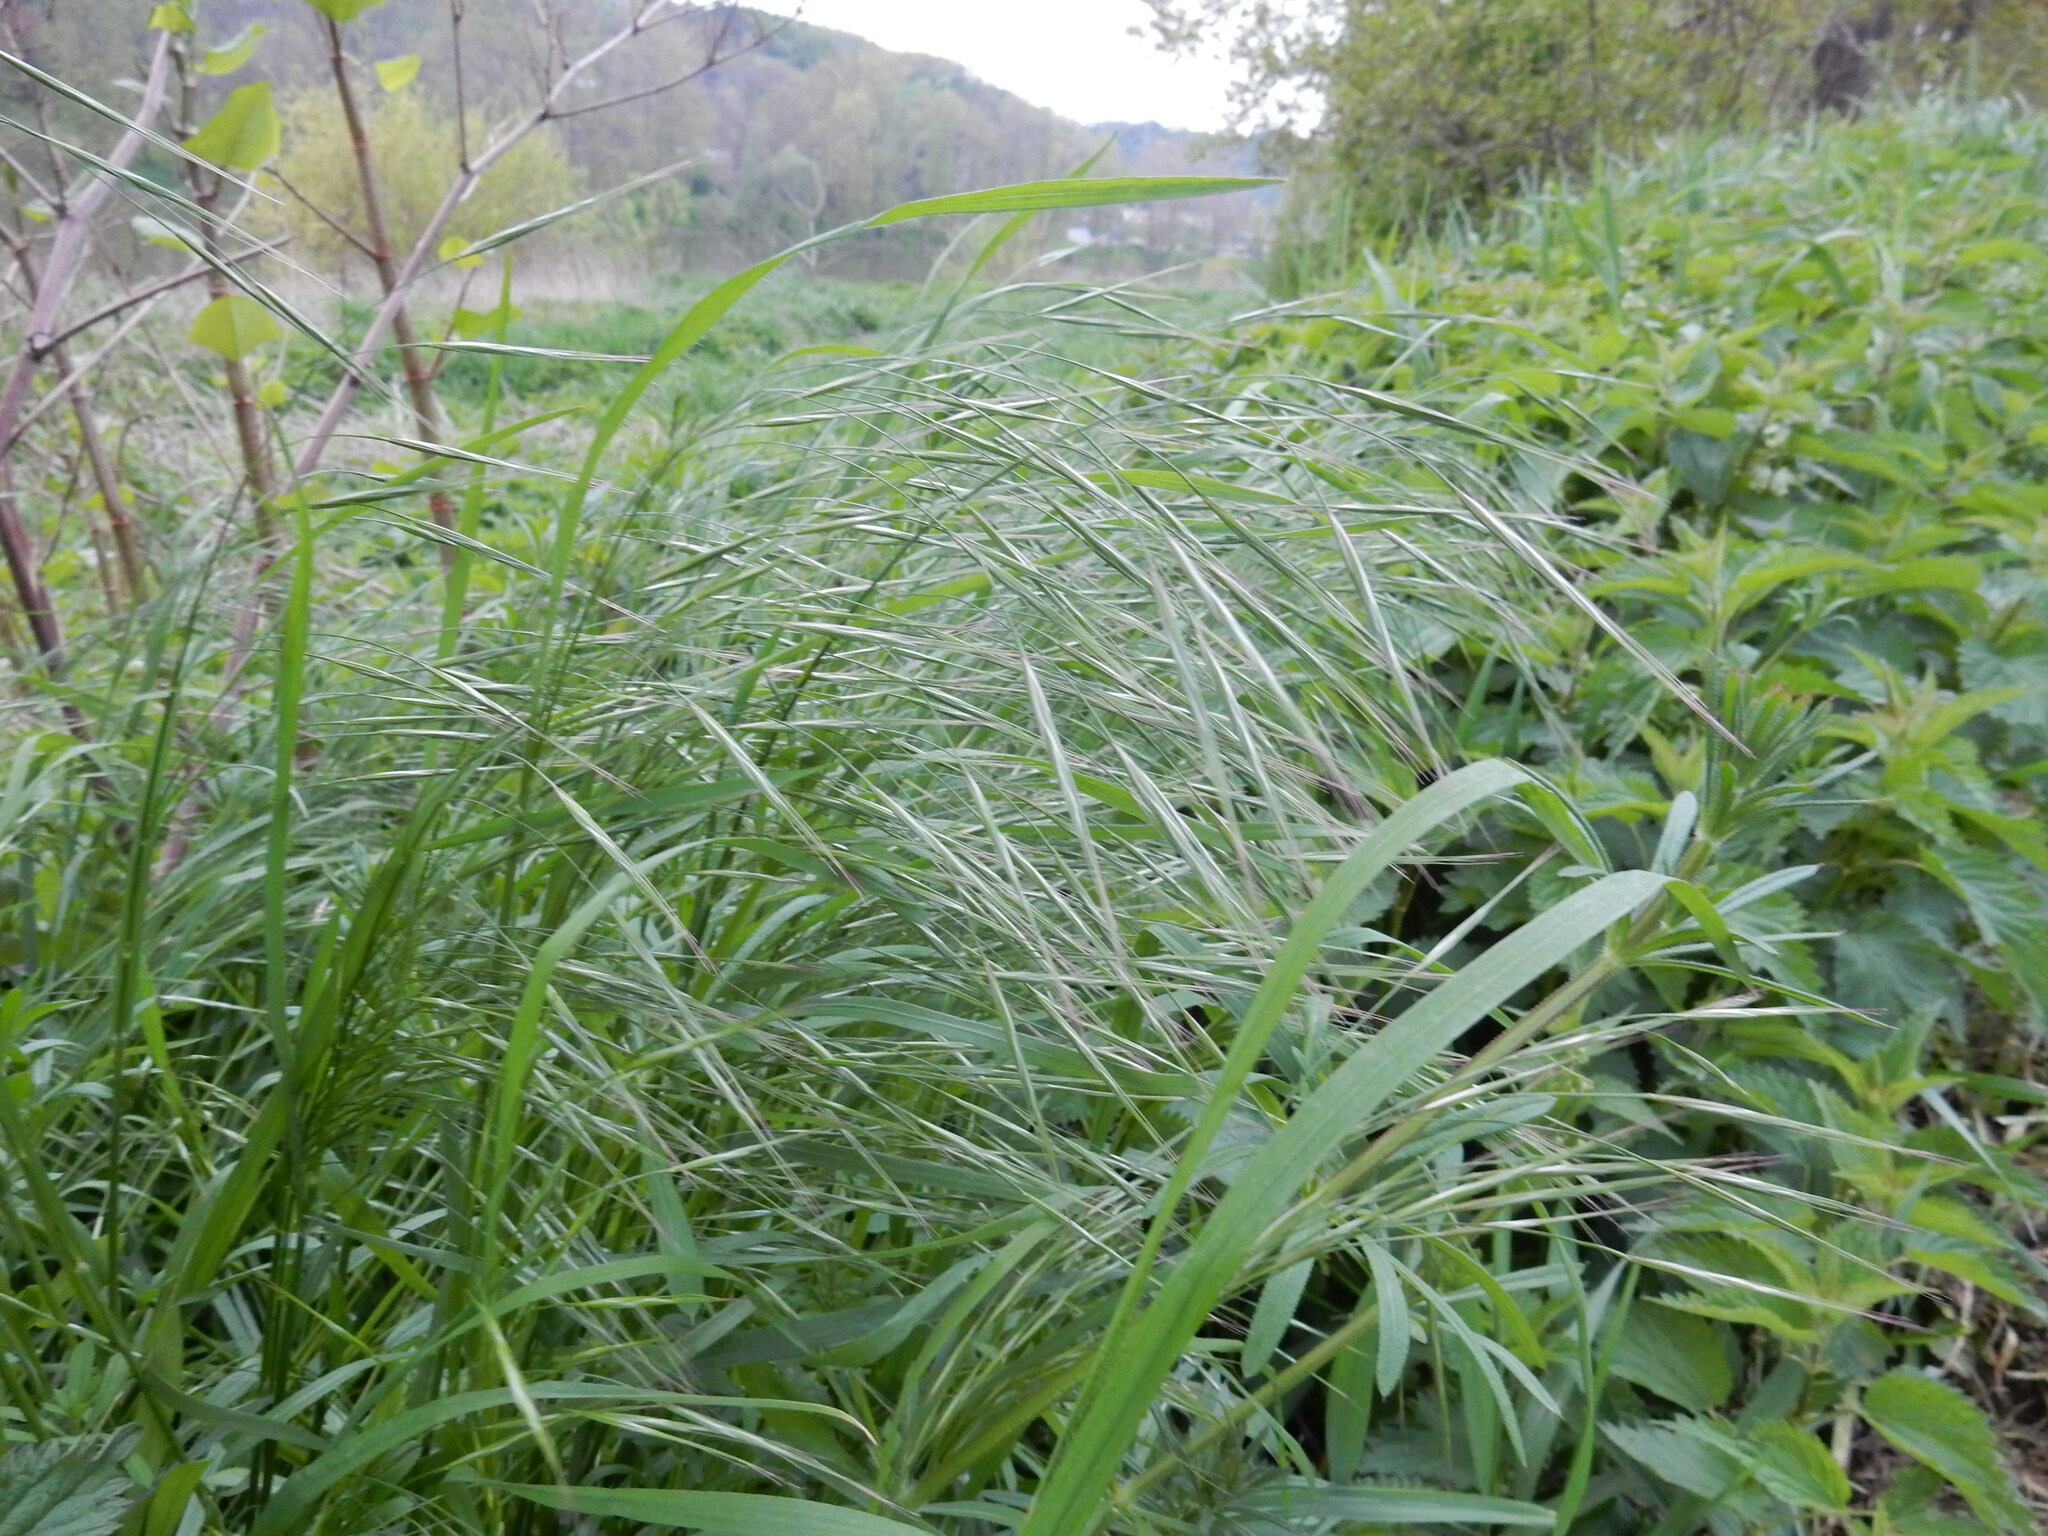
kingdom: Plantae
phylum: Tracheophyta
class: Liliopsida
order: Poales
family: Poaceae
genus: Bromus
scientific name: Bromus sterilis
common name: Poverty brome
